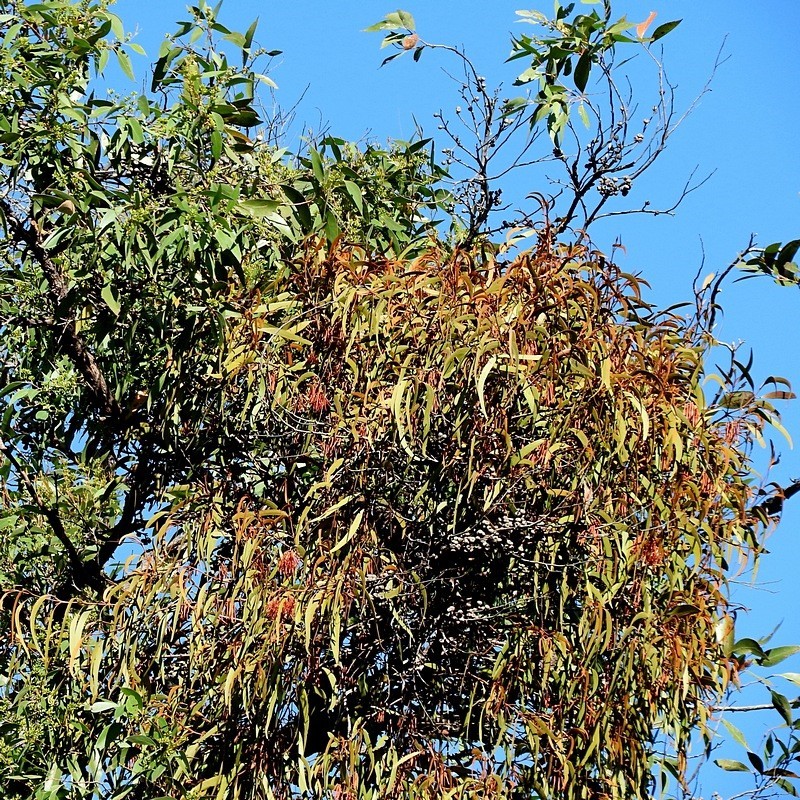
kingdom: Plantae
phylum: Tracheophyta
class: Magnoliopsida
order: Santalales
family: Loranthaceae
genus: Amyema
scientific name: Amyema pendula
